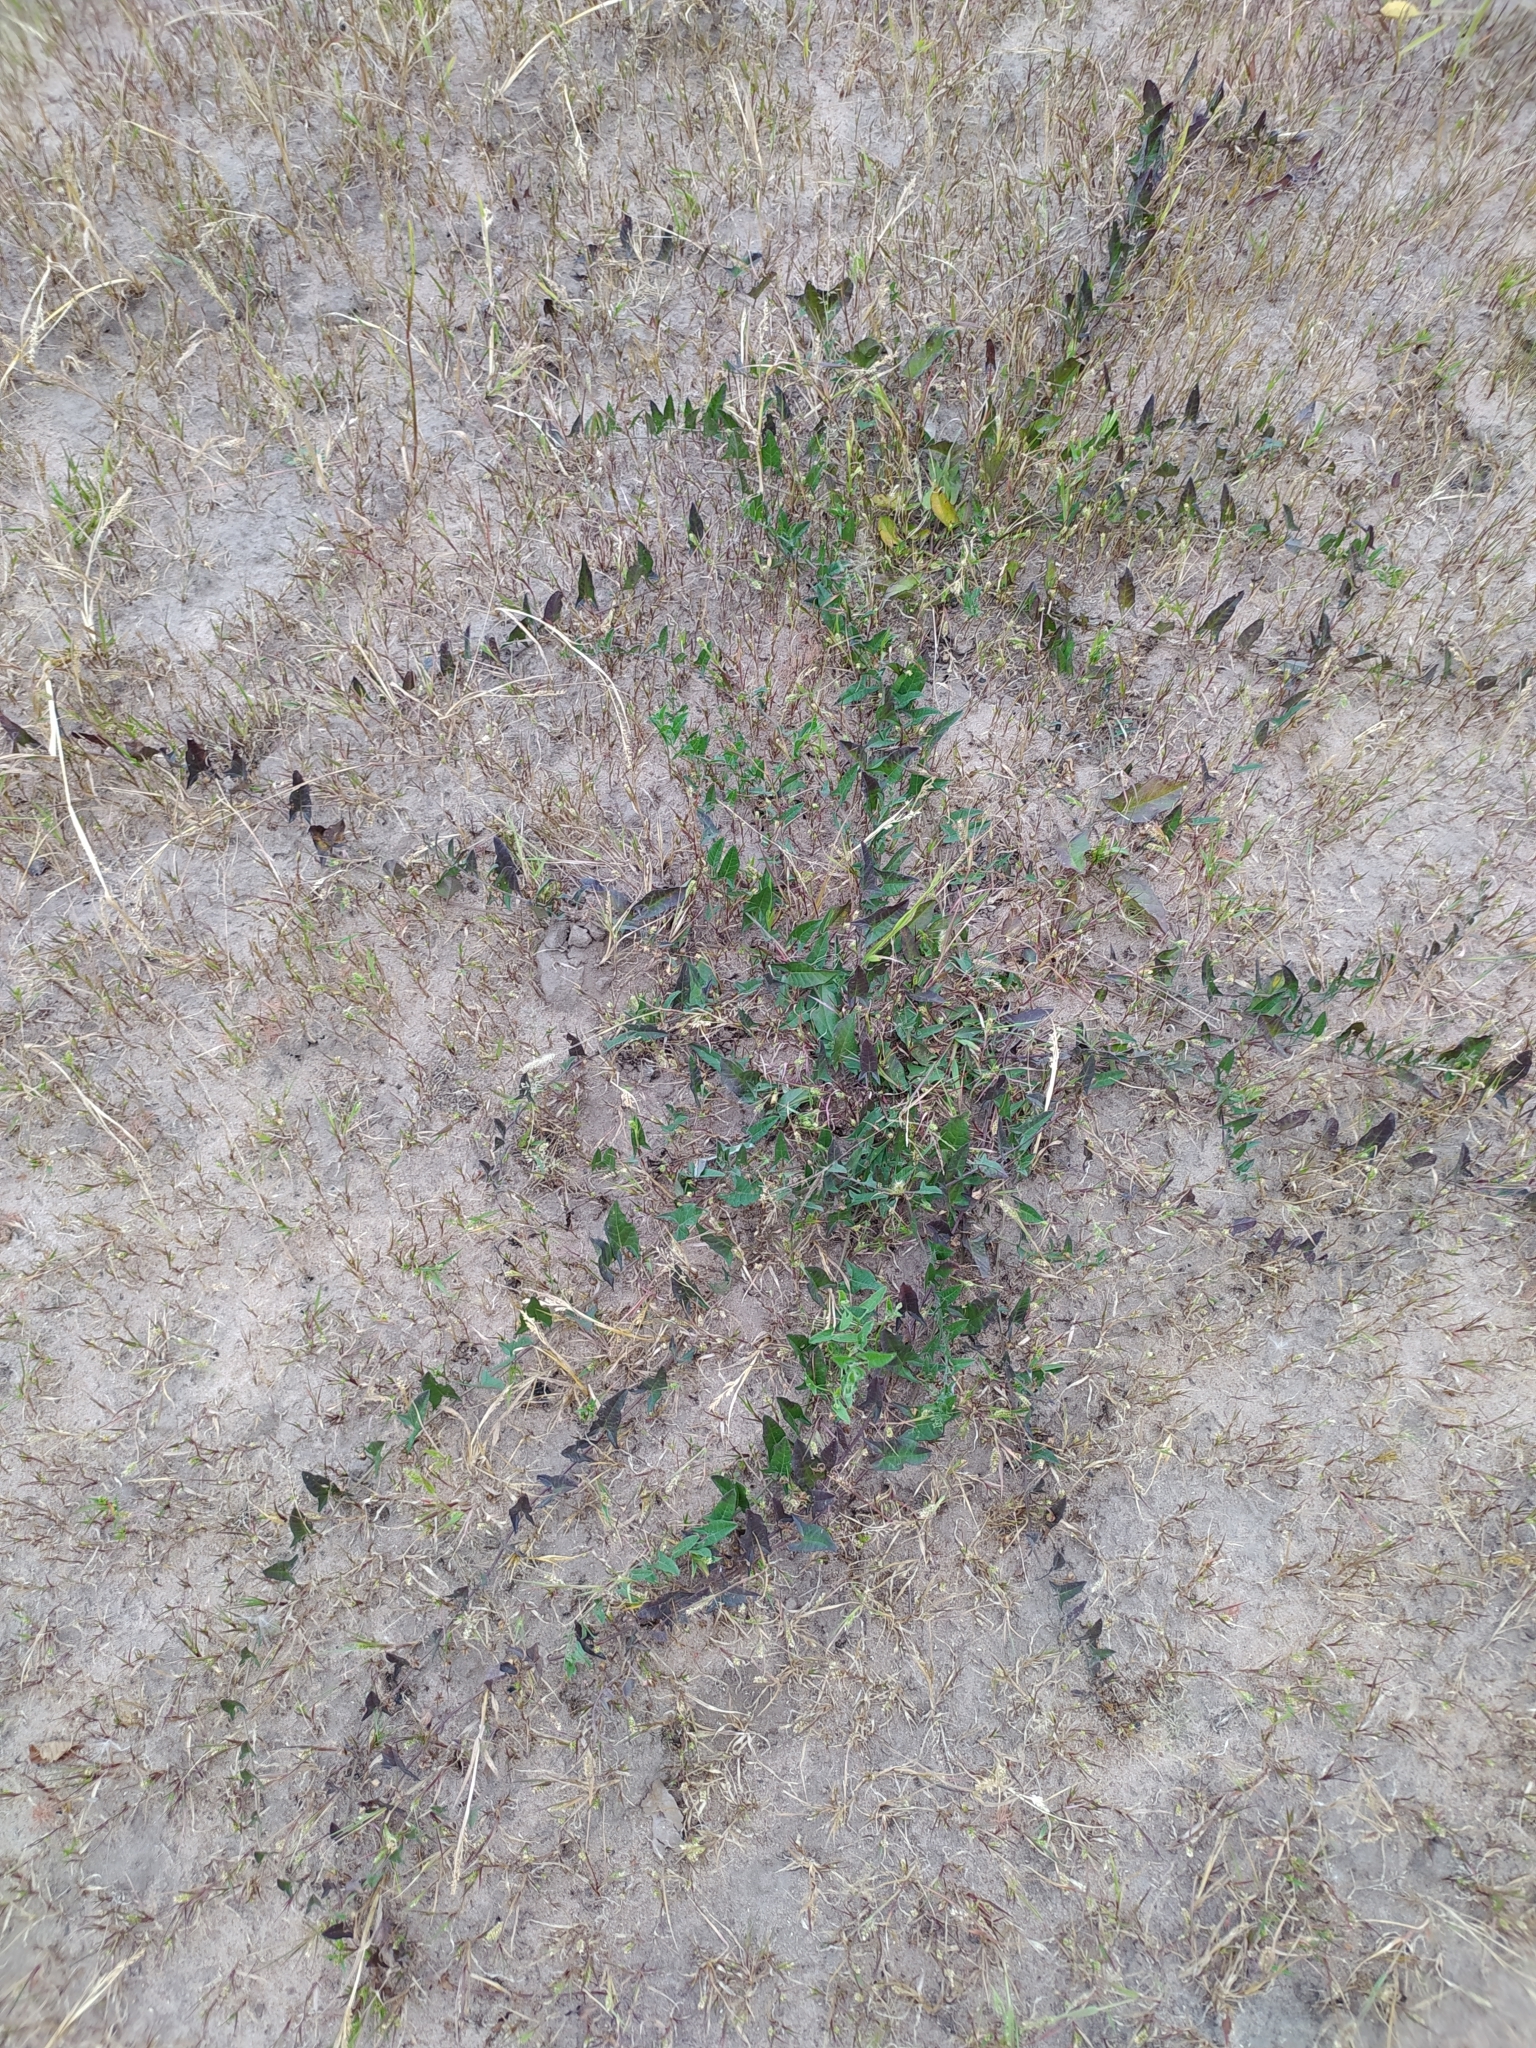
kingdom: Plantae
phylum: Tracheophyta
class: Magnoliopsida
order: Solanales
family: Convolvulaceae
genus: Convolvulus
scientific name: Convolvulus arvensis
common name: Field bindweed
